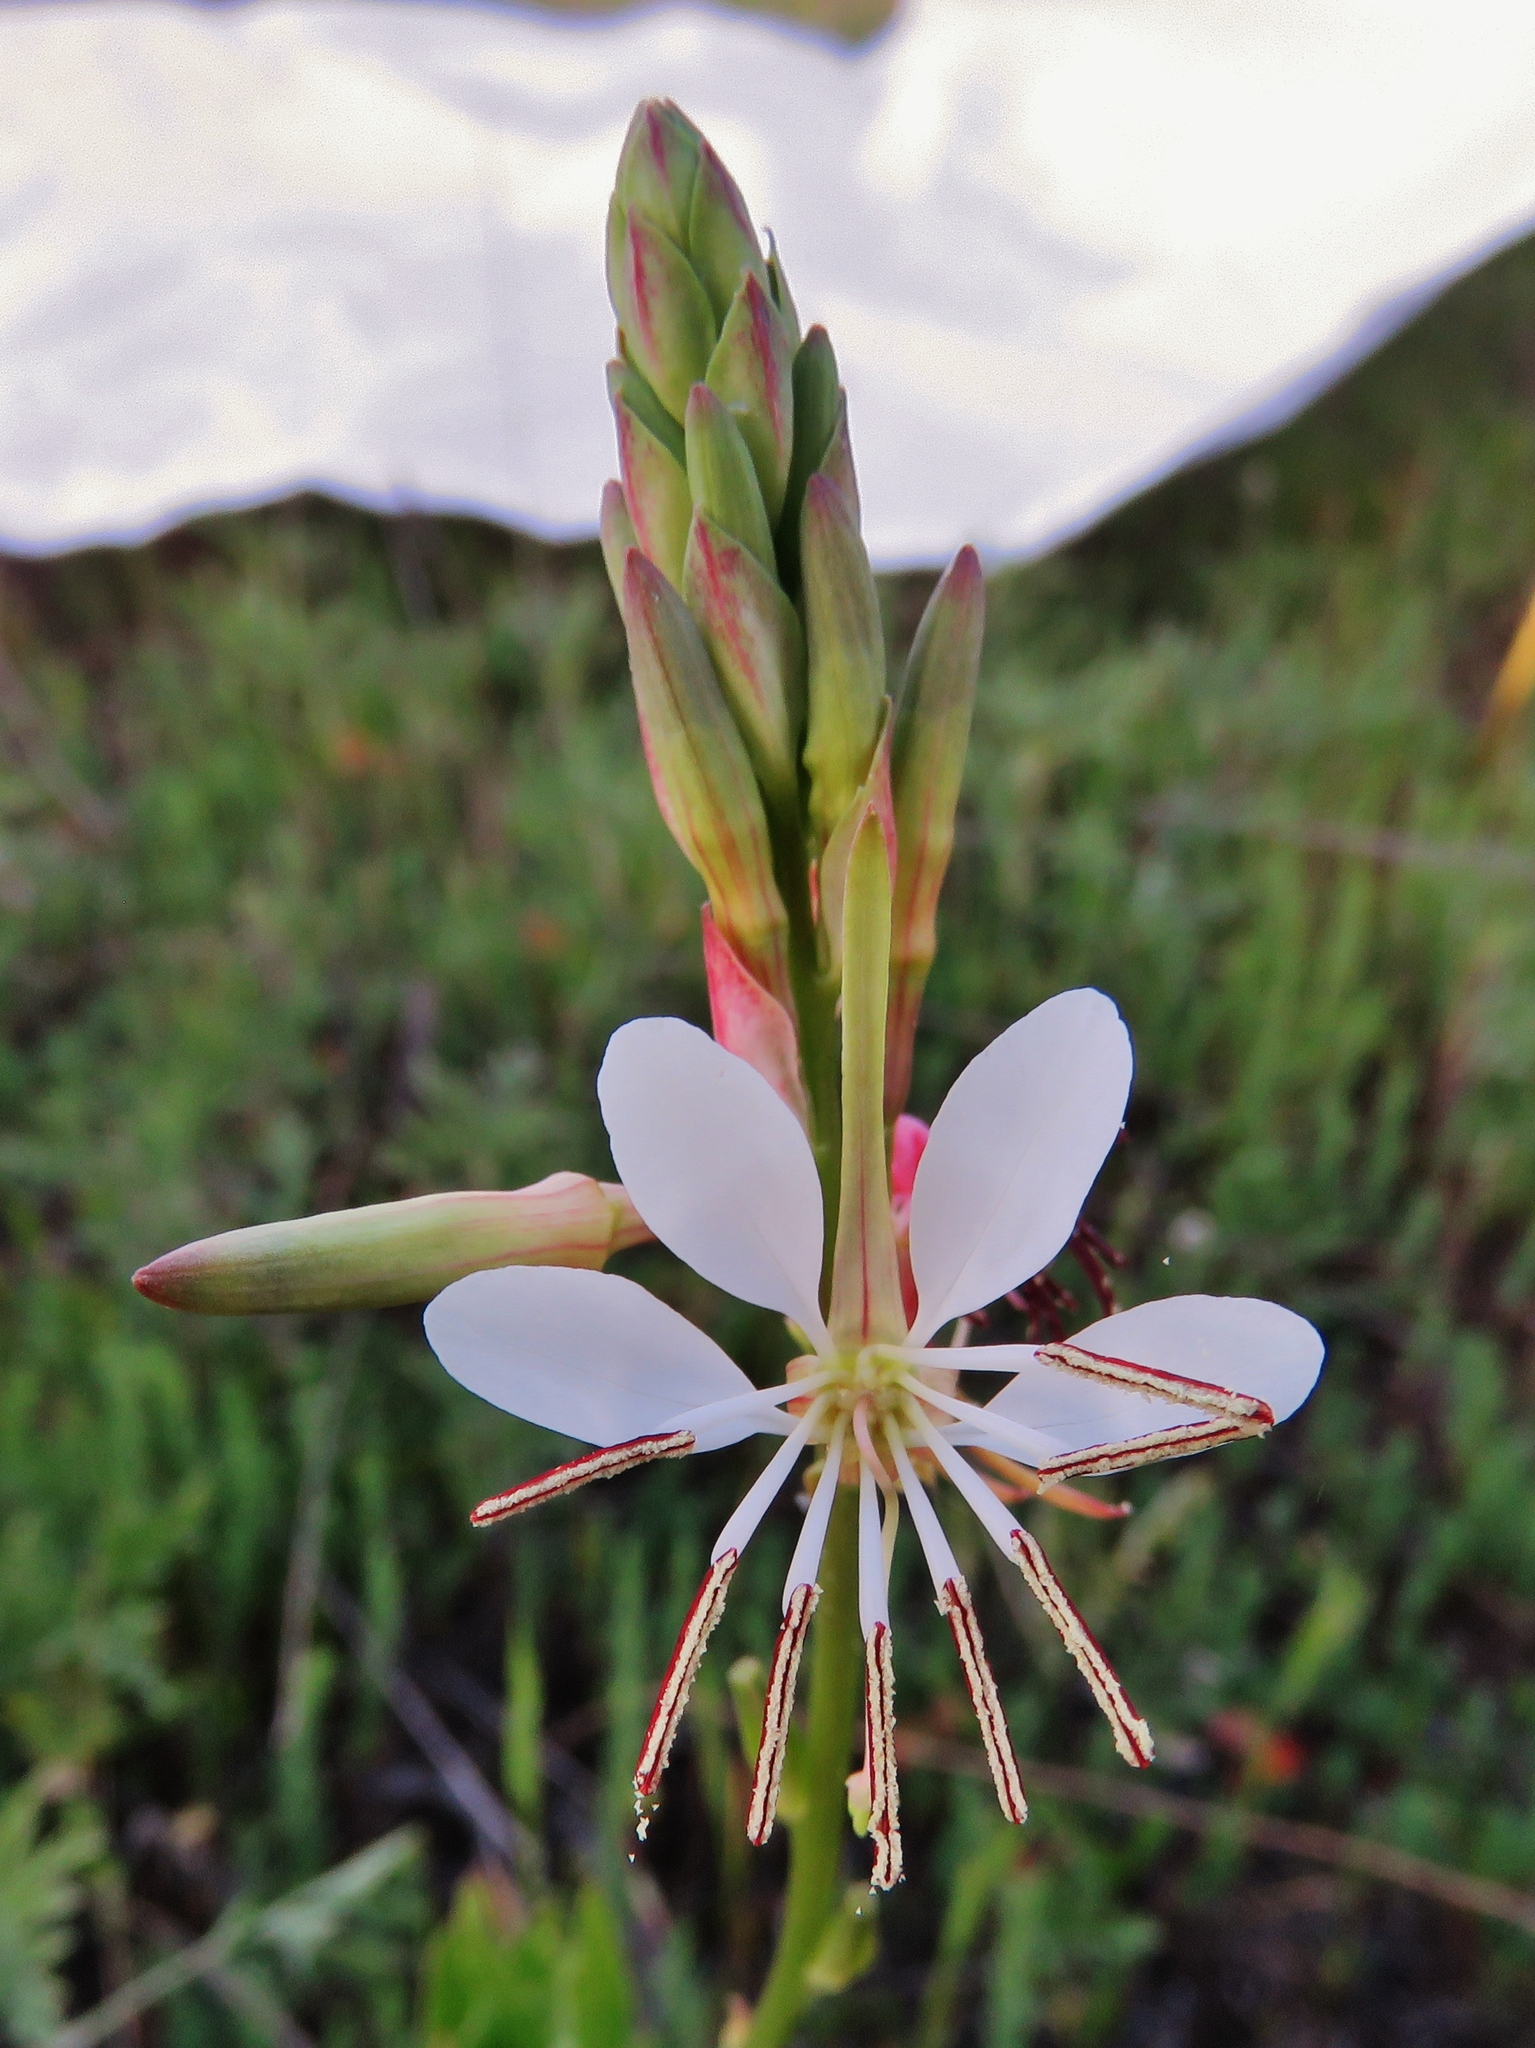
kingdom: Plantae
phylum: Tracheophyta
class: Magnoliopsida
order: Myrtales
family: Onagraceae
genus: Oenothera
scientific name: Oenothera suffulta
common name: Kisses
